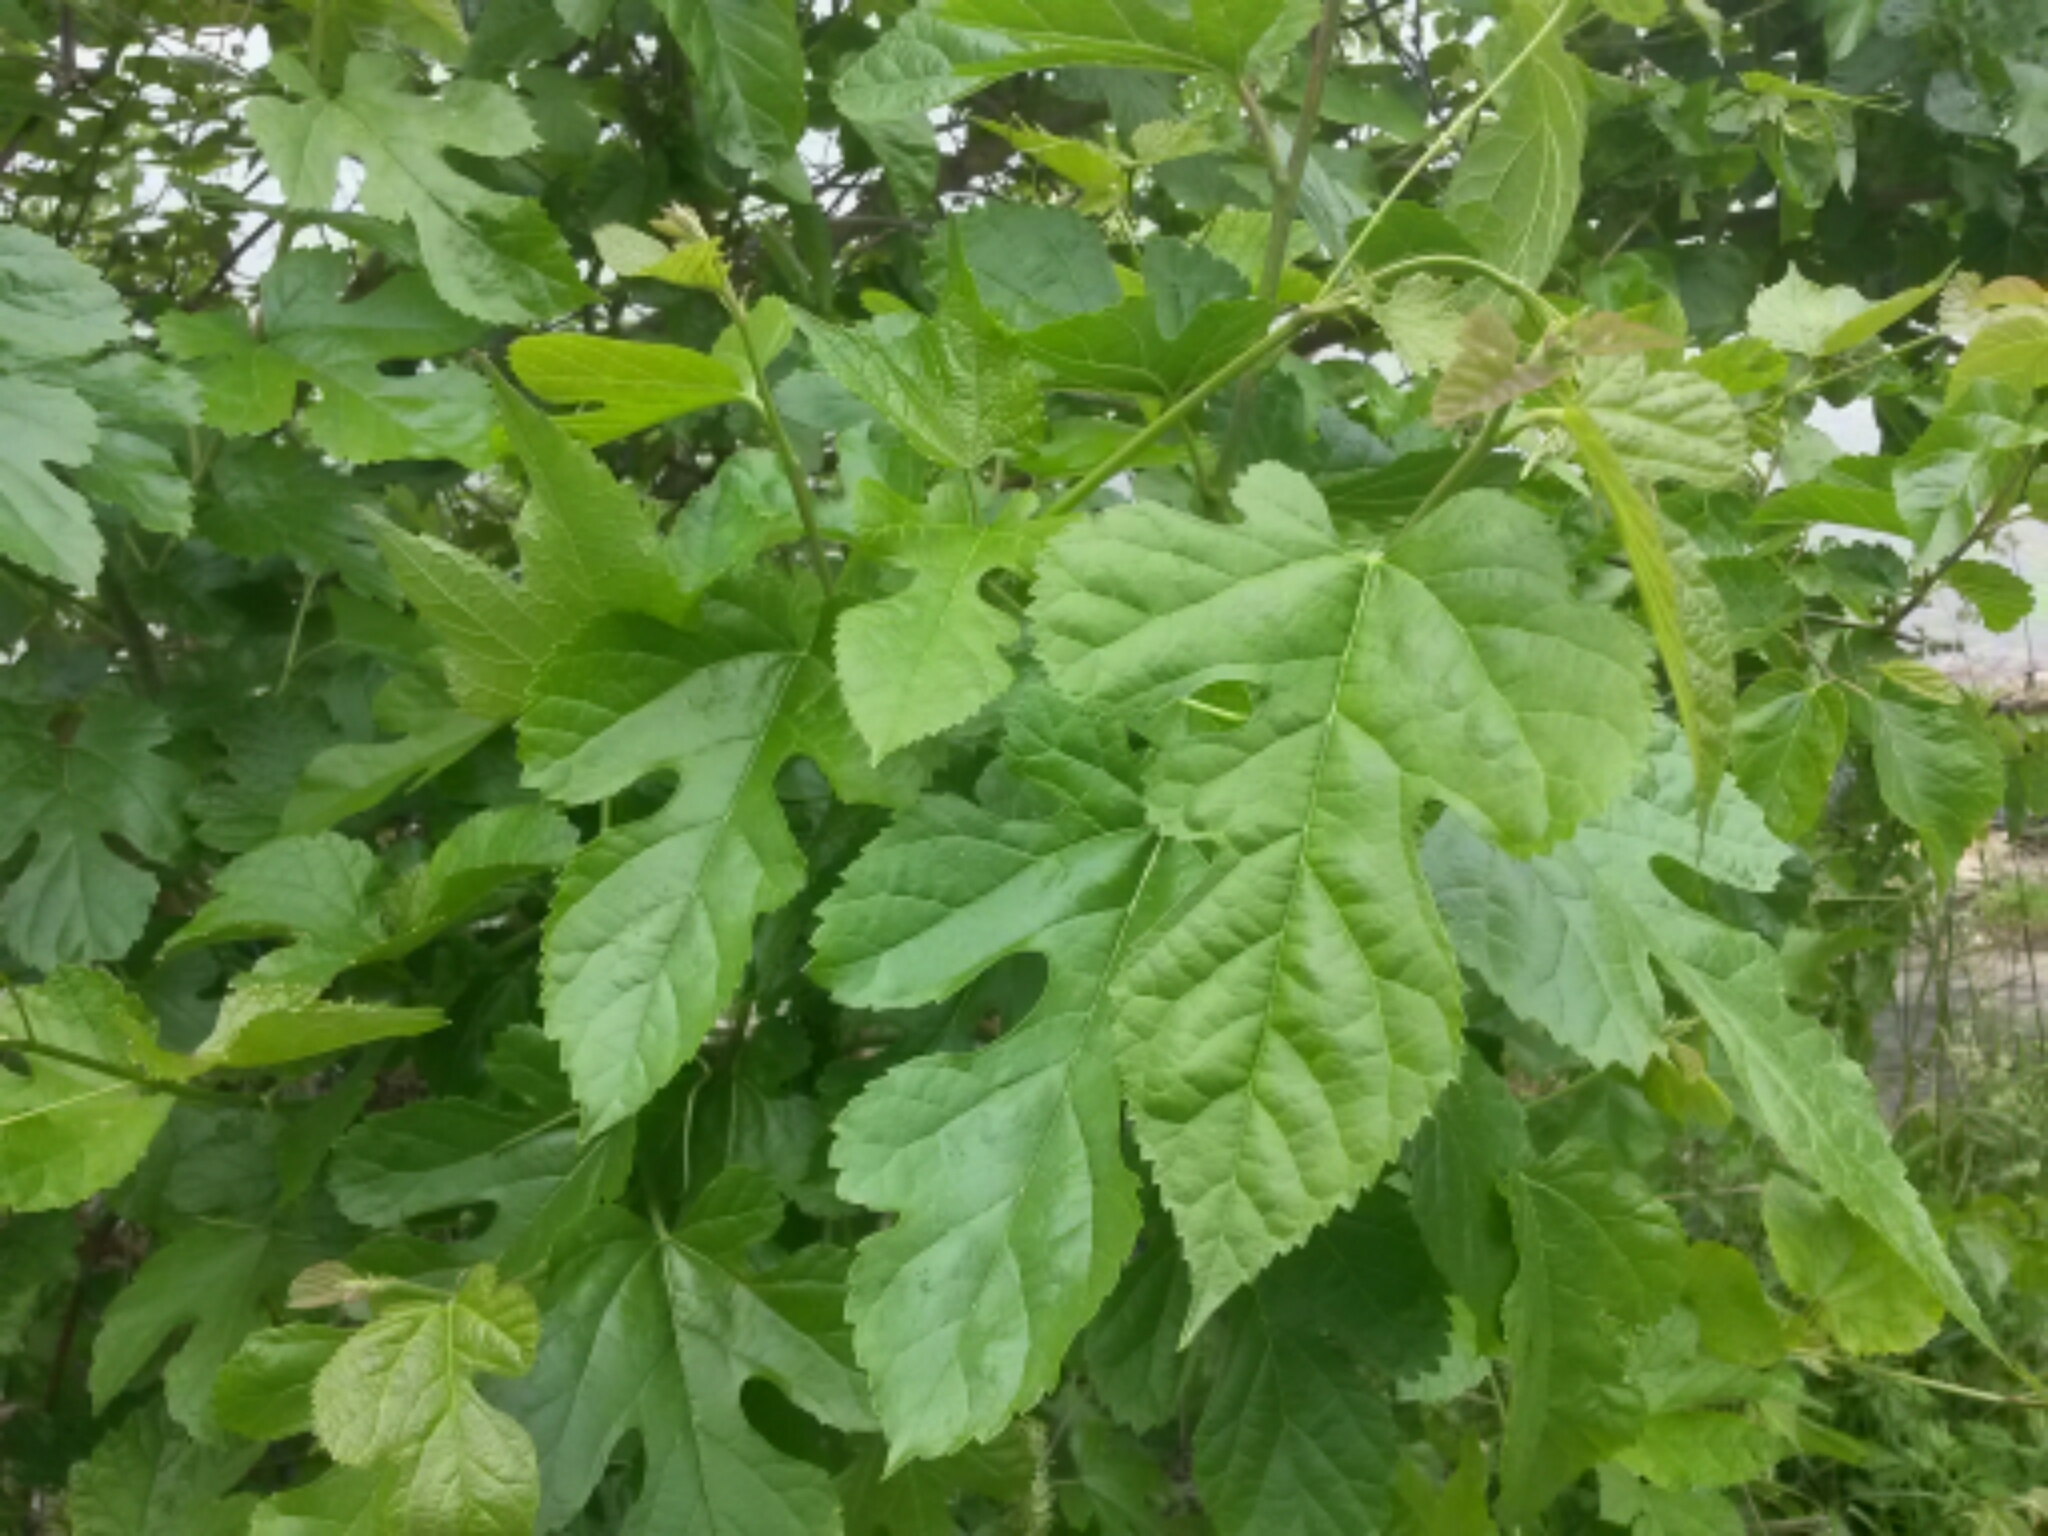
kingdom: Plantae
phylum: Tracheophyta
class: Magnoliopsida
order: Rosales
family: Moraceae
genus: Morus
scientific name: Morus alba
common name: White mulberry
